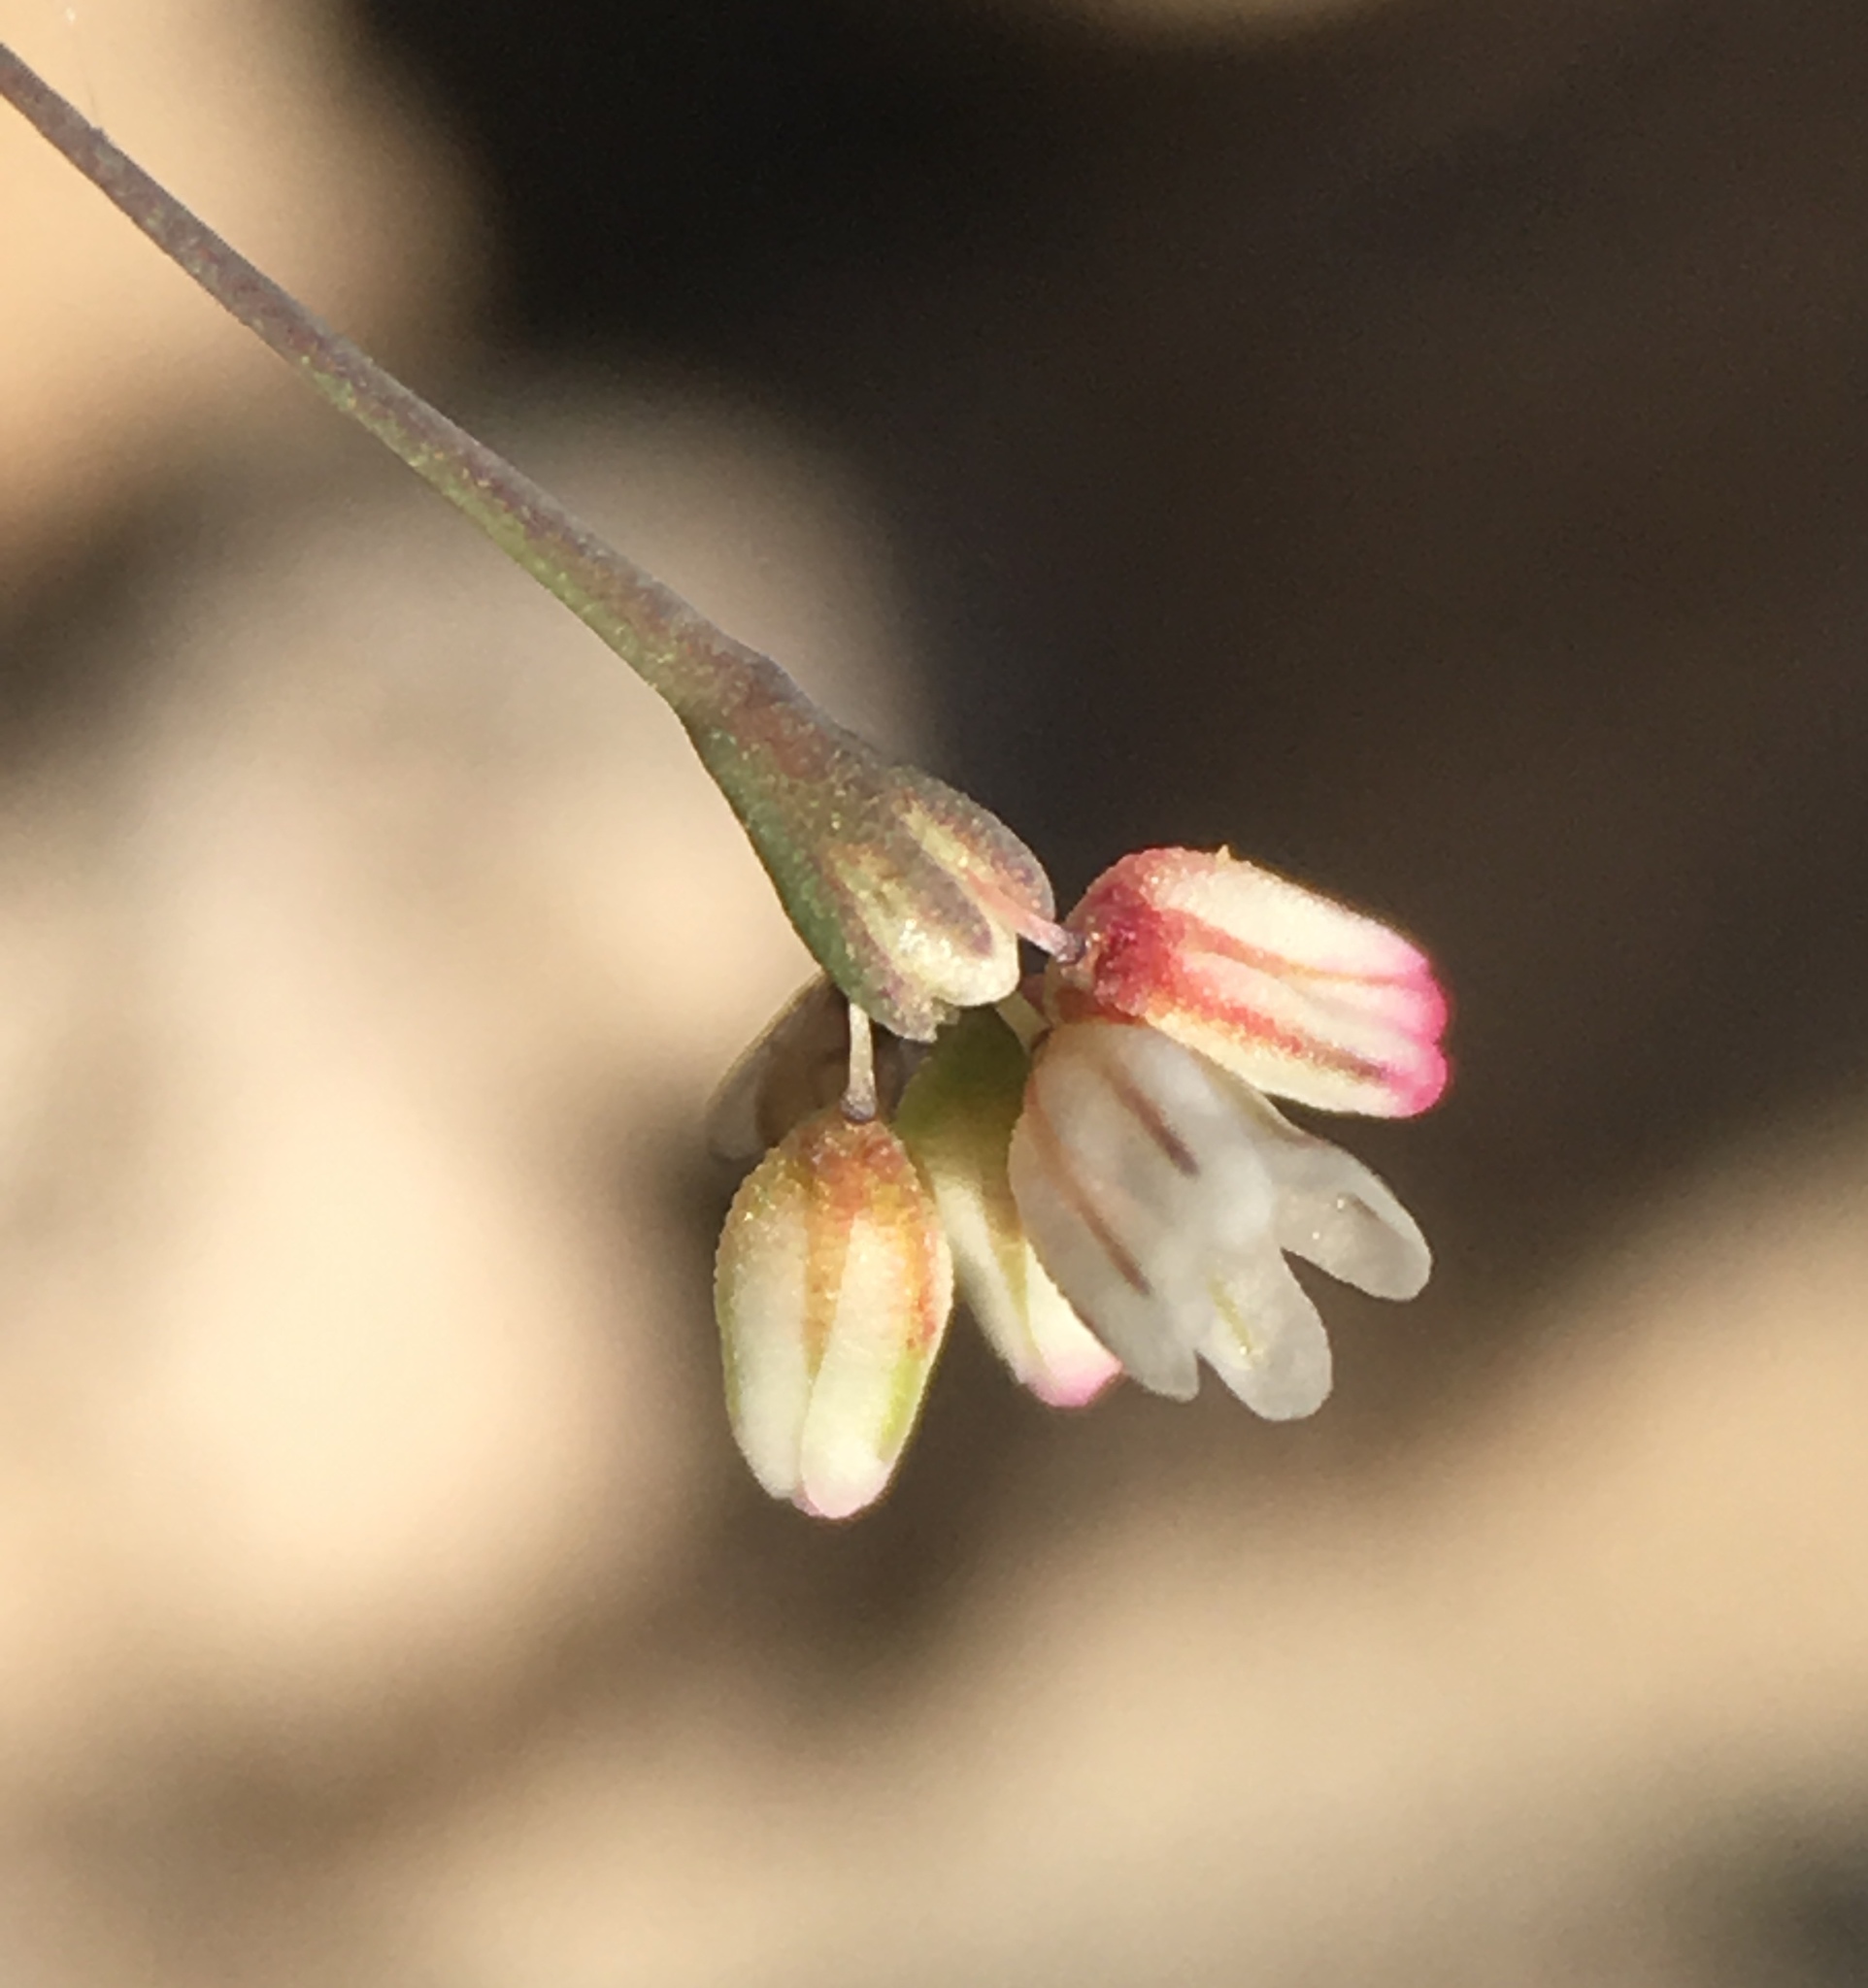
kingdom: Plantae
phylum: Tracheophyta
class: Magnoliopsida
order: Caryophyllales
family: Polygonaceae
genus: Eriogonum
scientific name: Eriogonum esmeraldense
